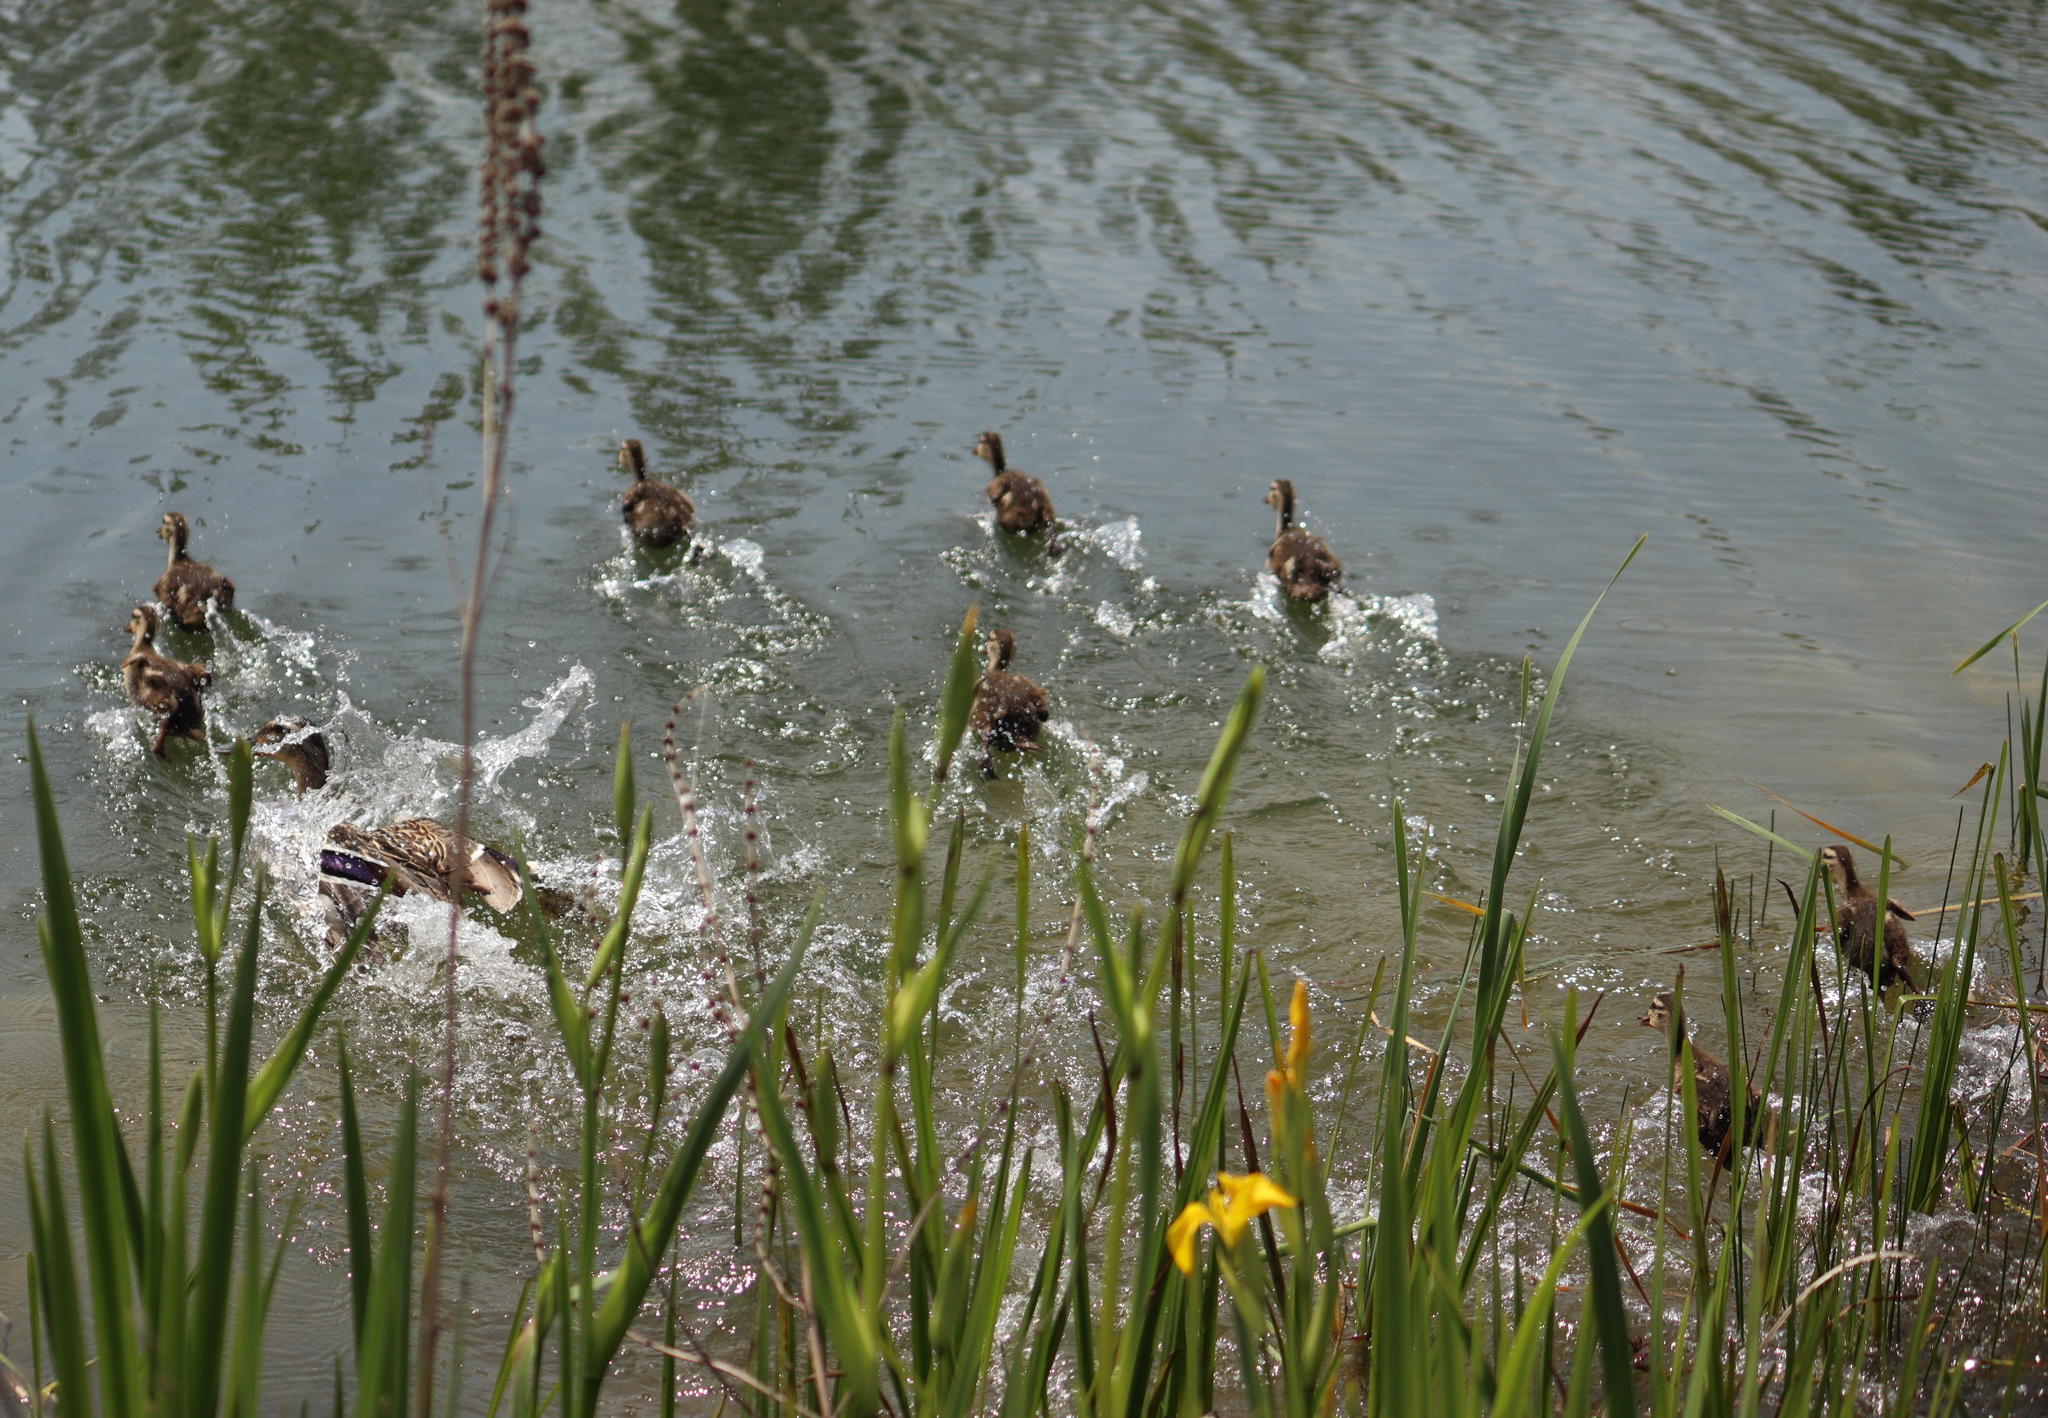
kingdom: Animalia
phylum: Chordata
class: Aves
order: Anseriformes
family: Anatidae
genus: Anas
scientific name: Anas platyrhynchos
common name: Mallard
